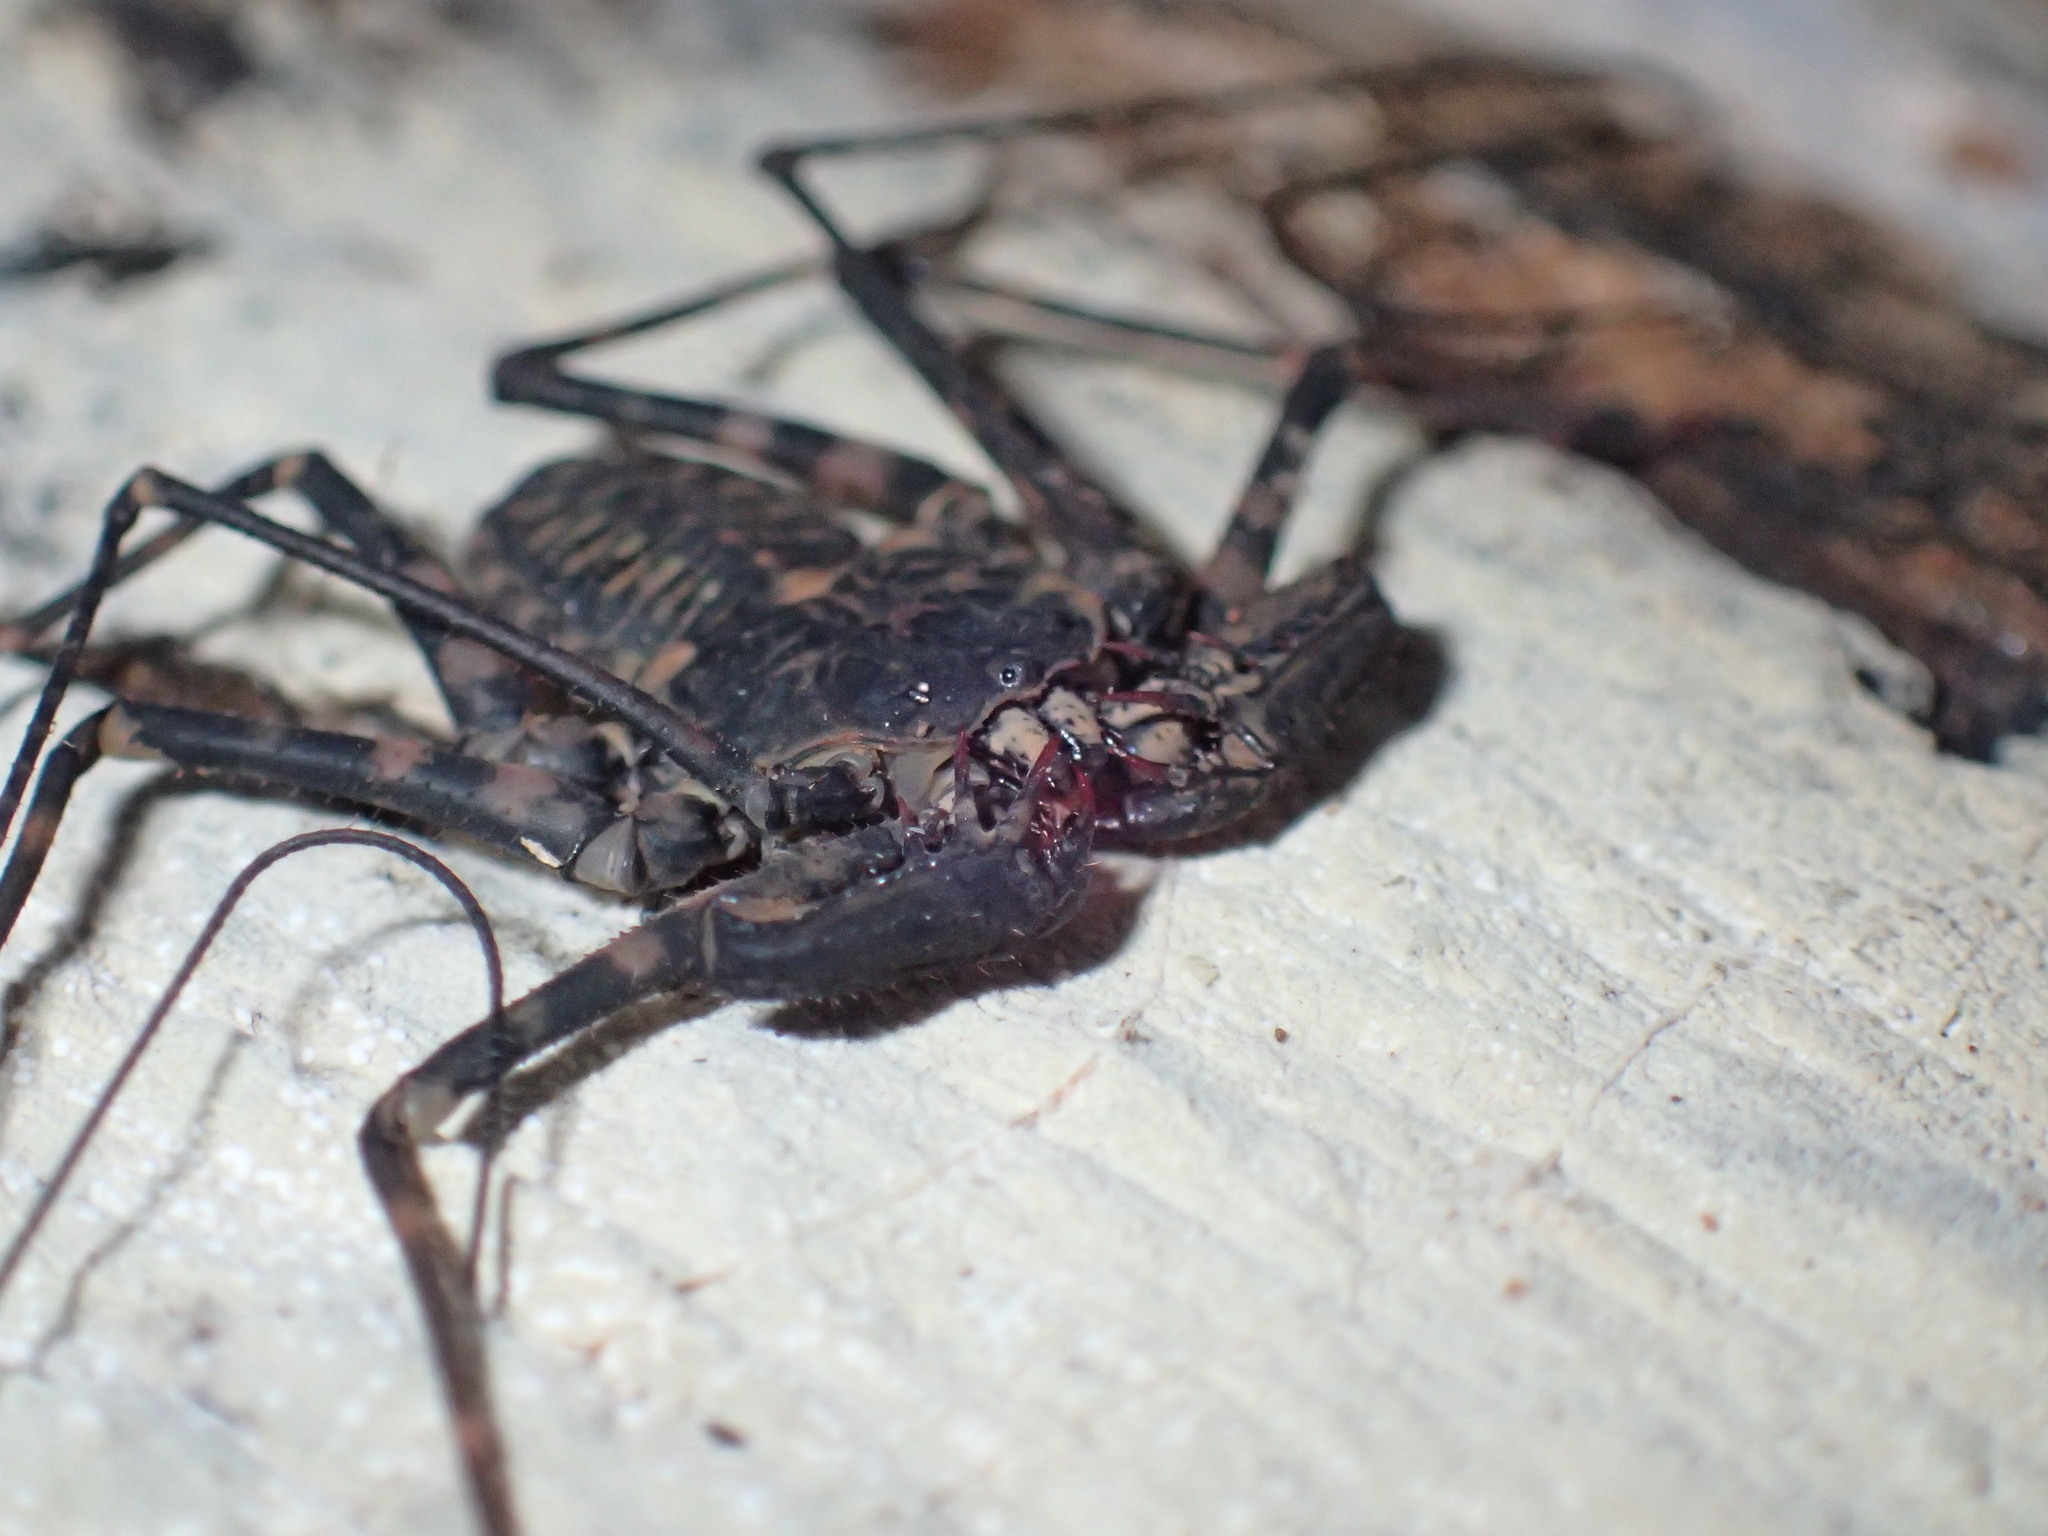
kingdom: Animalia
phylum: Arthropoda
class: Arachnida
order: Amblypygi
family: Phrynichidae
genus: Damon
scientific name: Damon annulatipes
